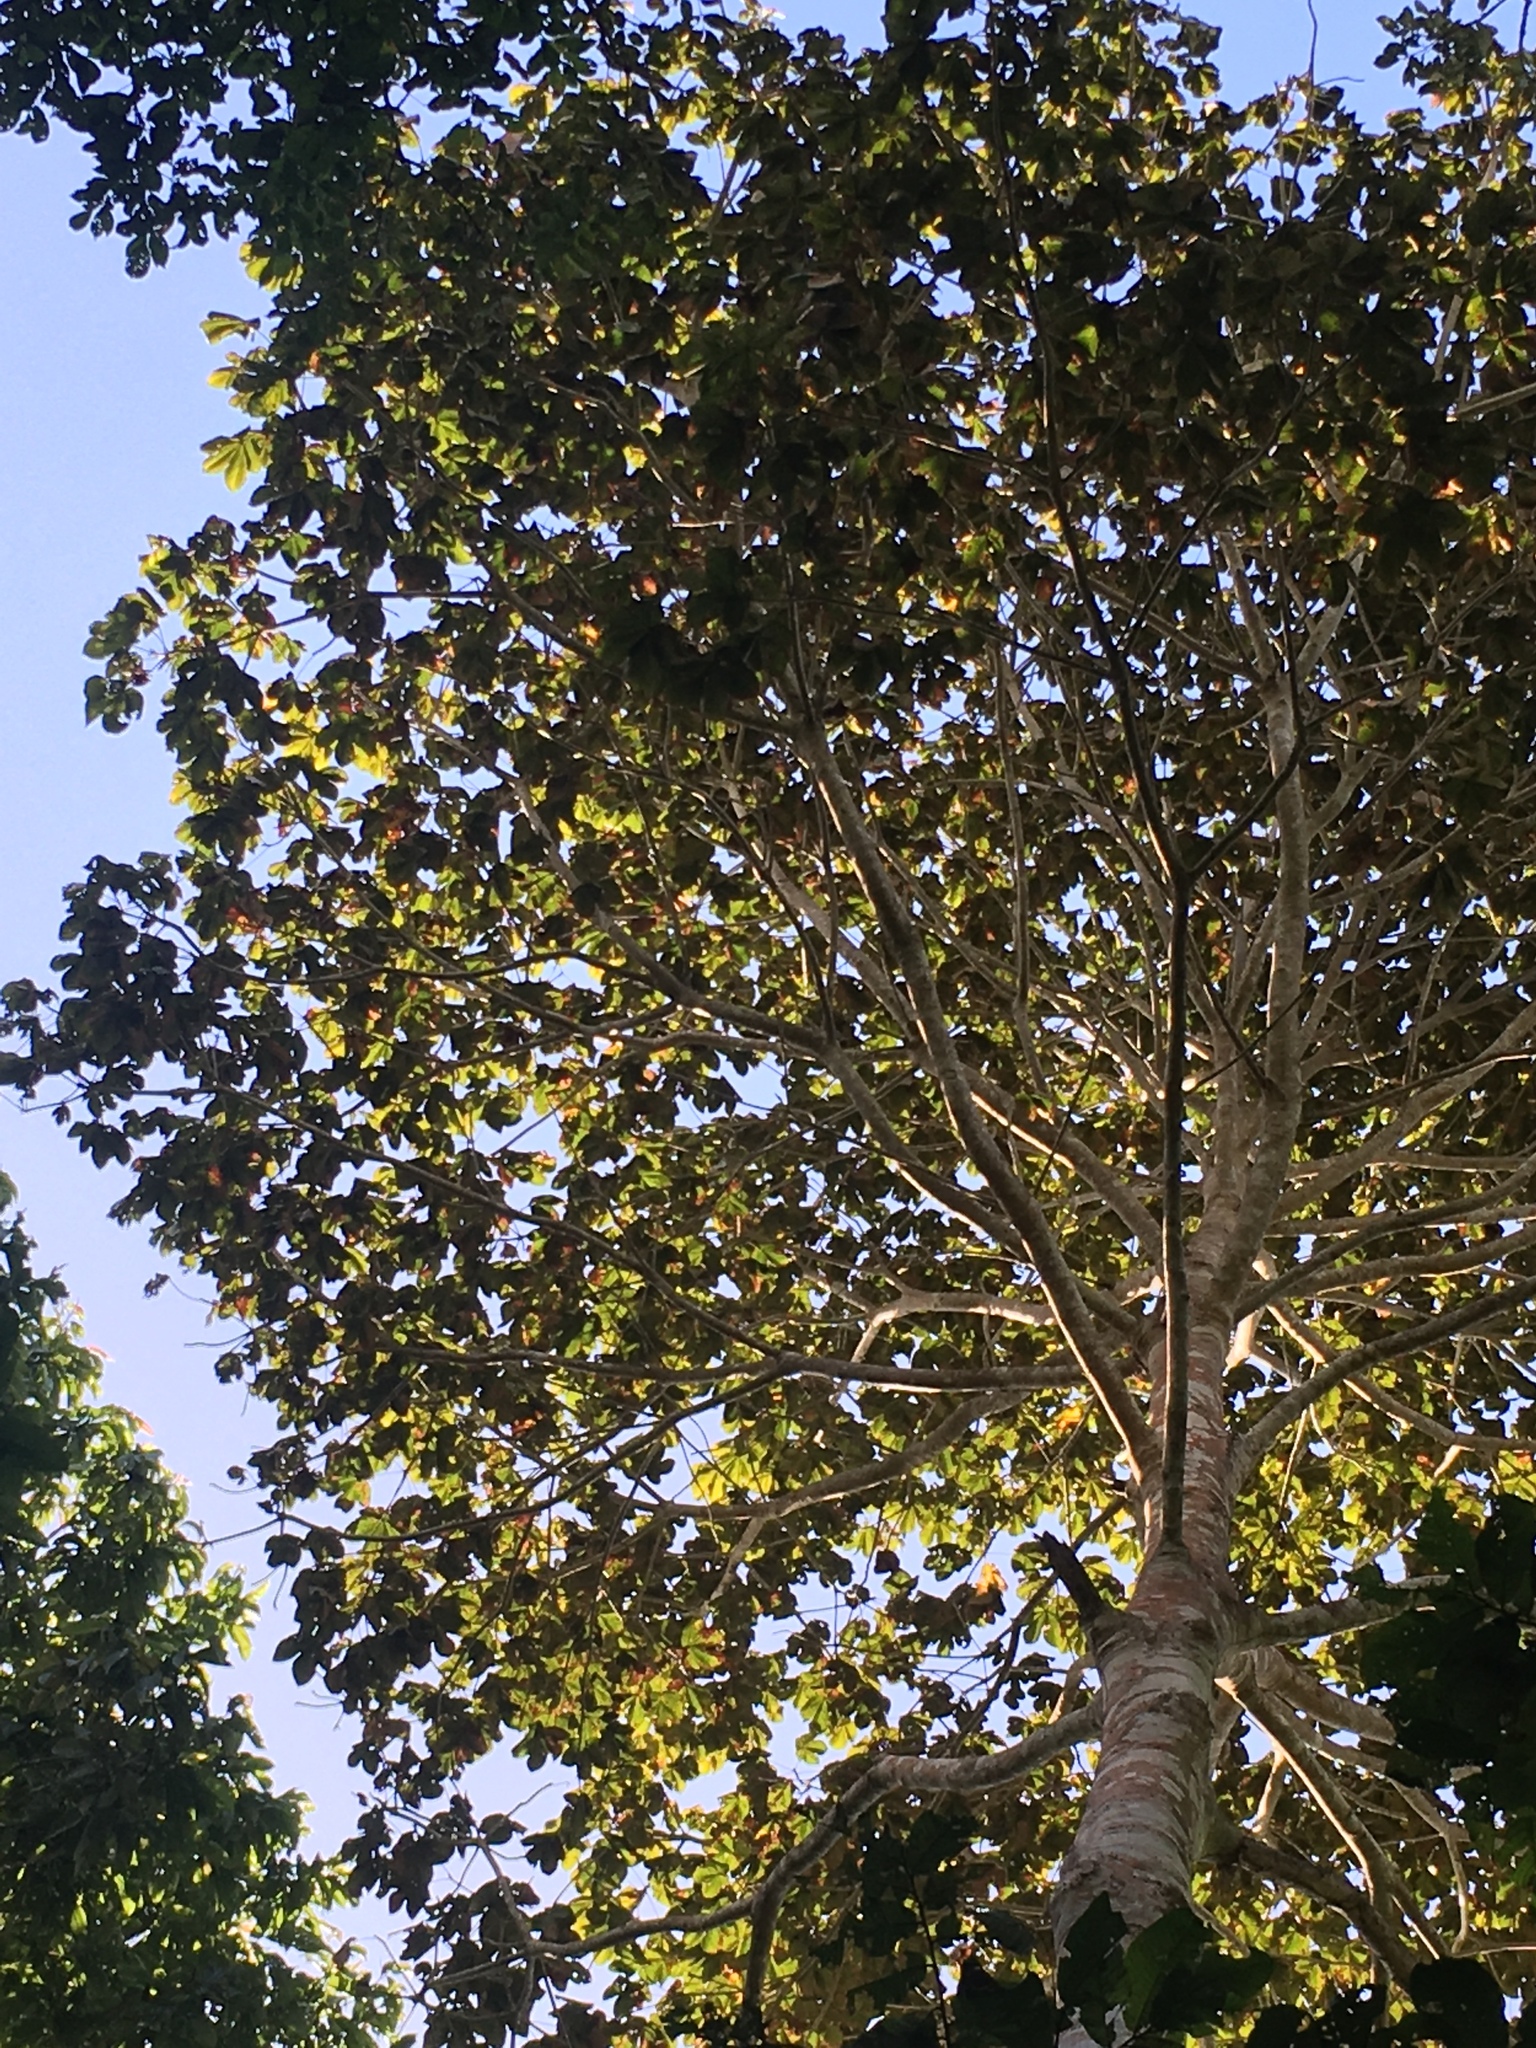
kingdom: Plantae
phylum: Tracheophyta
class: Magnoliopsida
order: Malvales
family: Malvaceae
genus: Sterculia
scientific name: Sterculia apetala
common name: Panama tree
